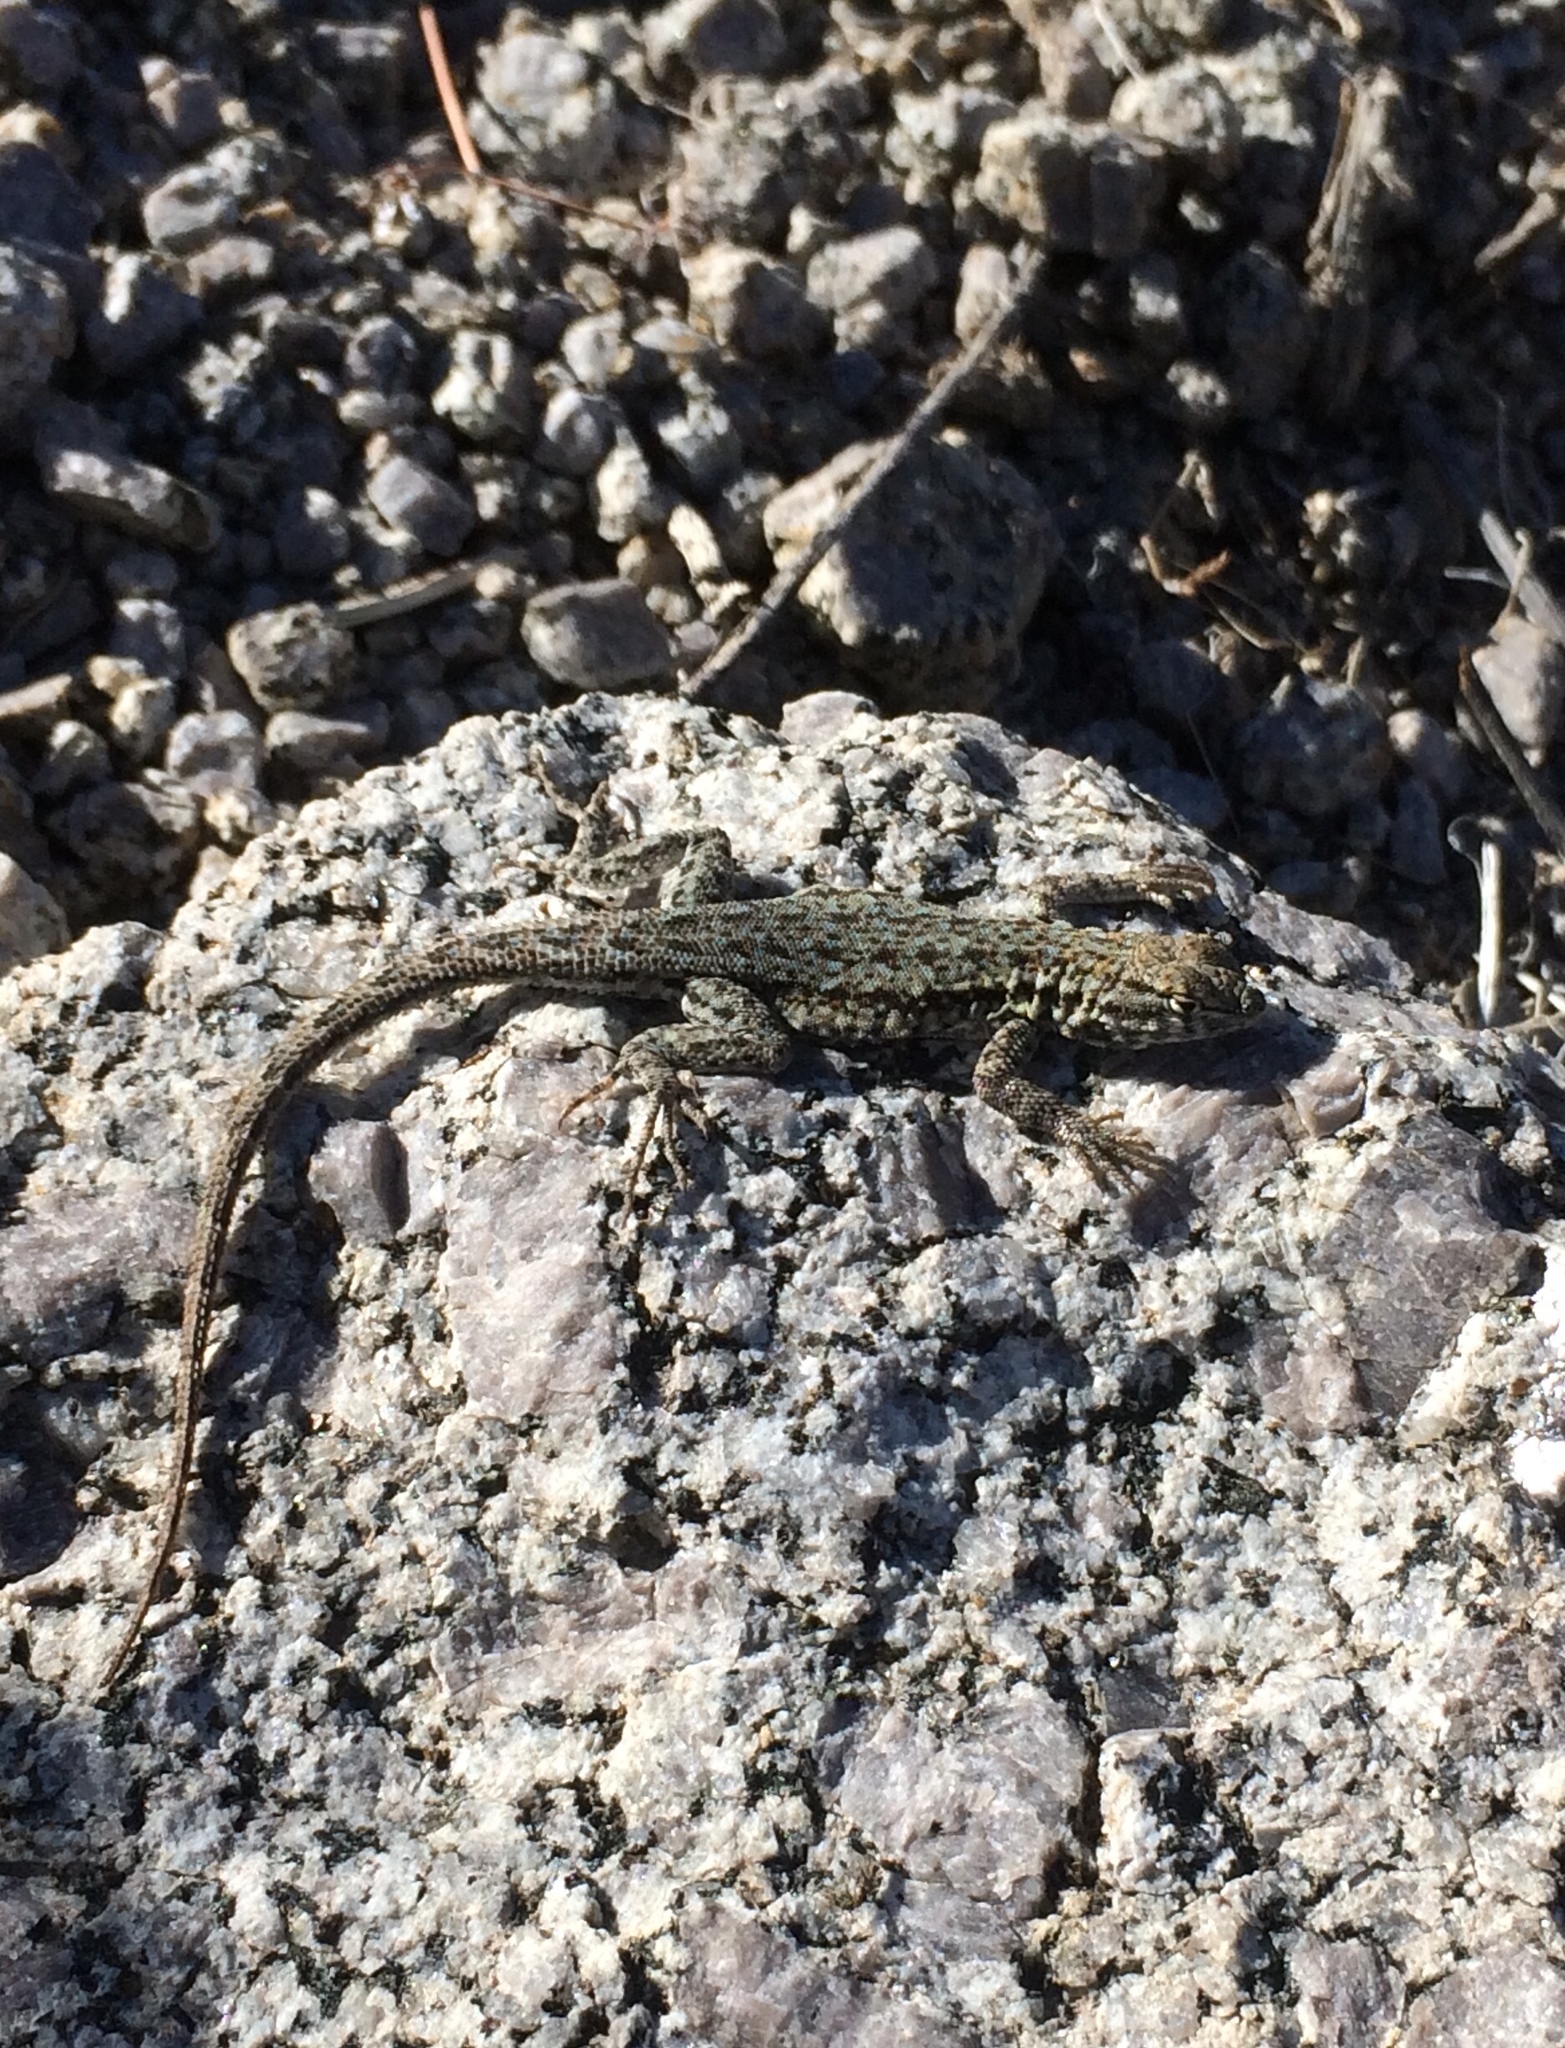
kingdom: Animalia
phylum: Chordata
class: Squamata
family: Phrynosomatidae
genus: Uta
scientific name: Uta stansburiana
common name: Side-blotched lizard
